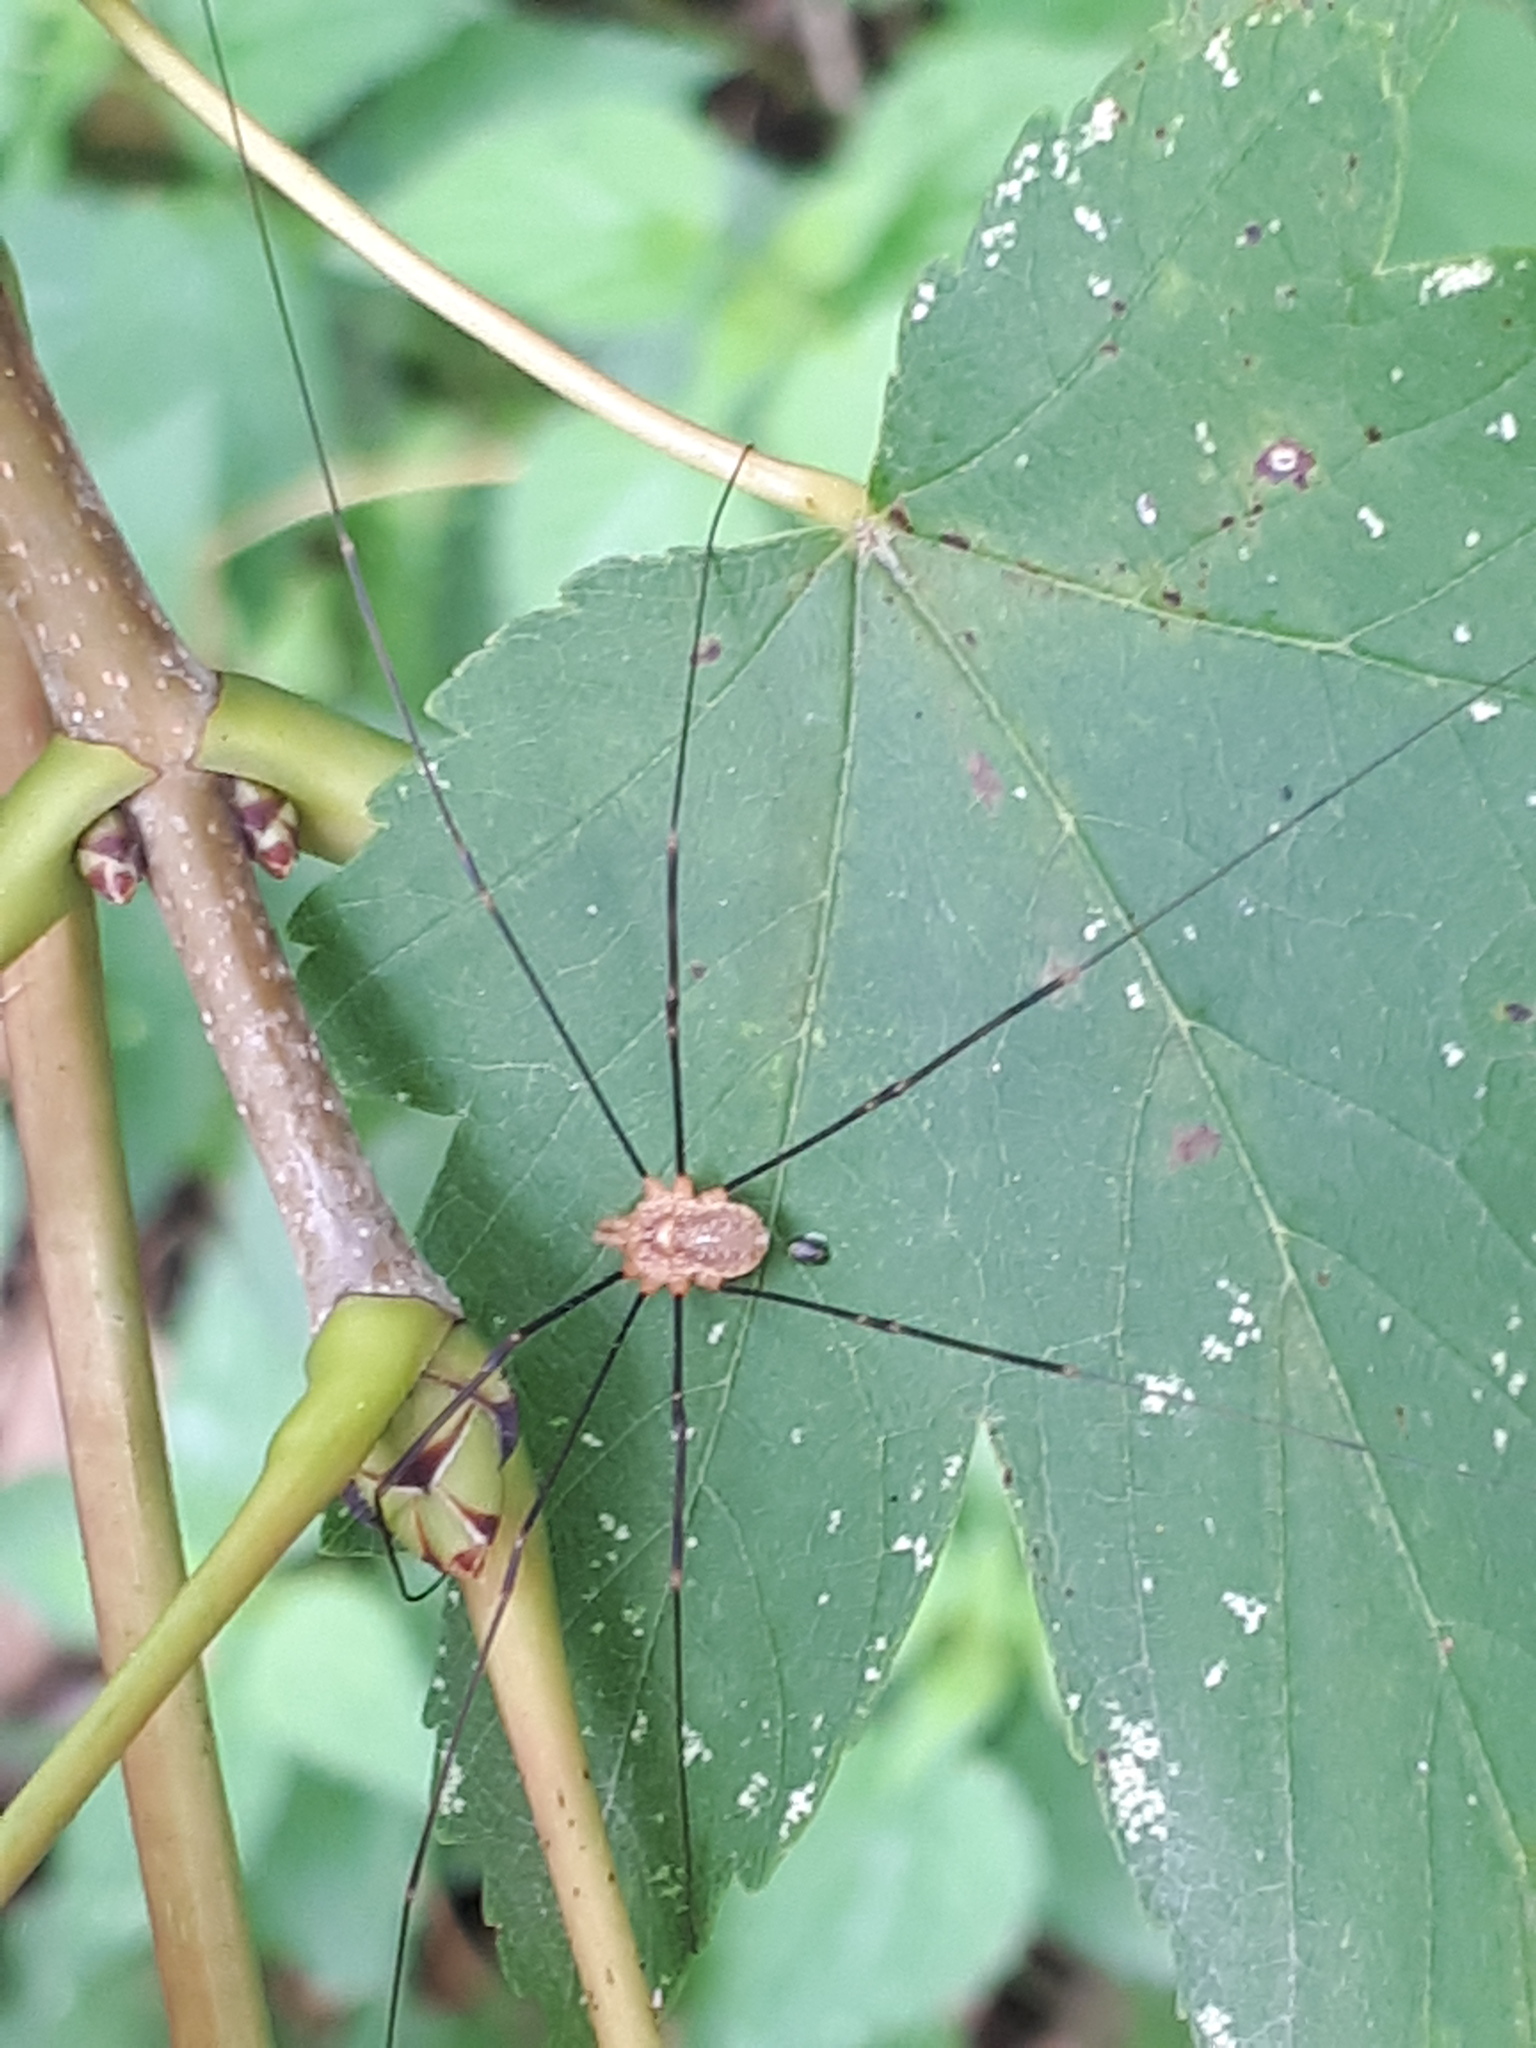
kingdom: Animalia
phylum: Arthropoda
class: Arachnida
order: Opiliones
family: Phalangiidae
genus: Opilio
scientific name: Opilio canestrinii
